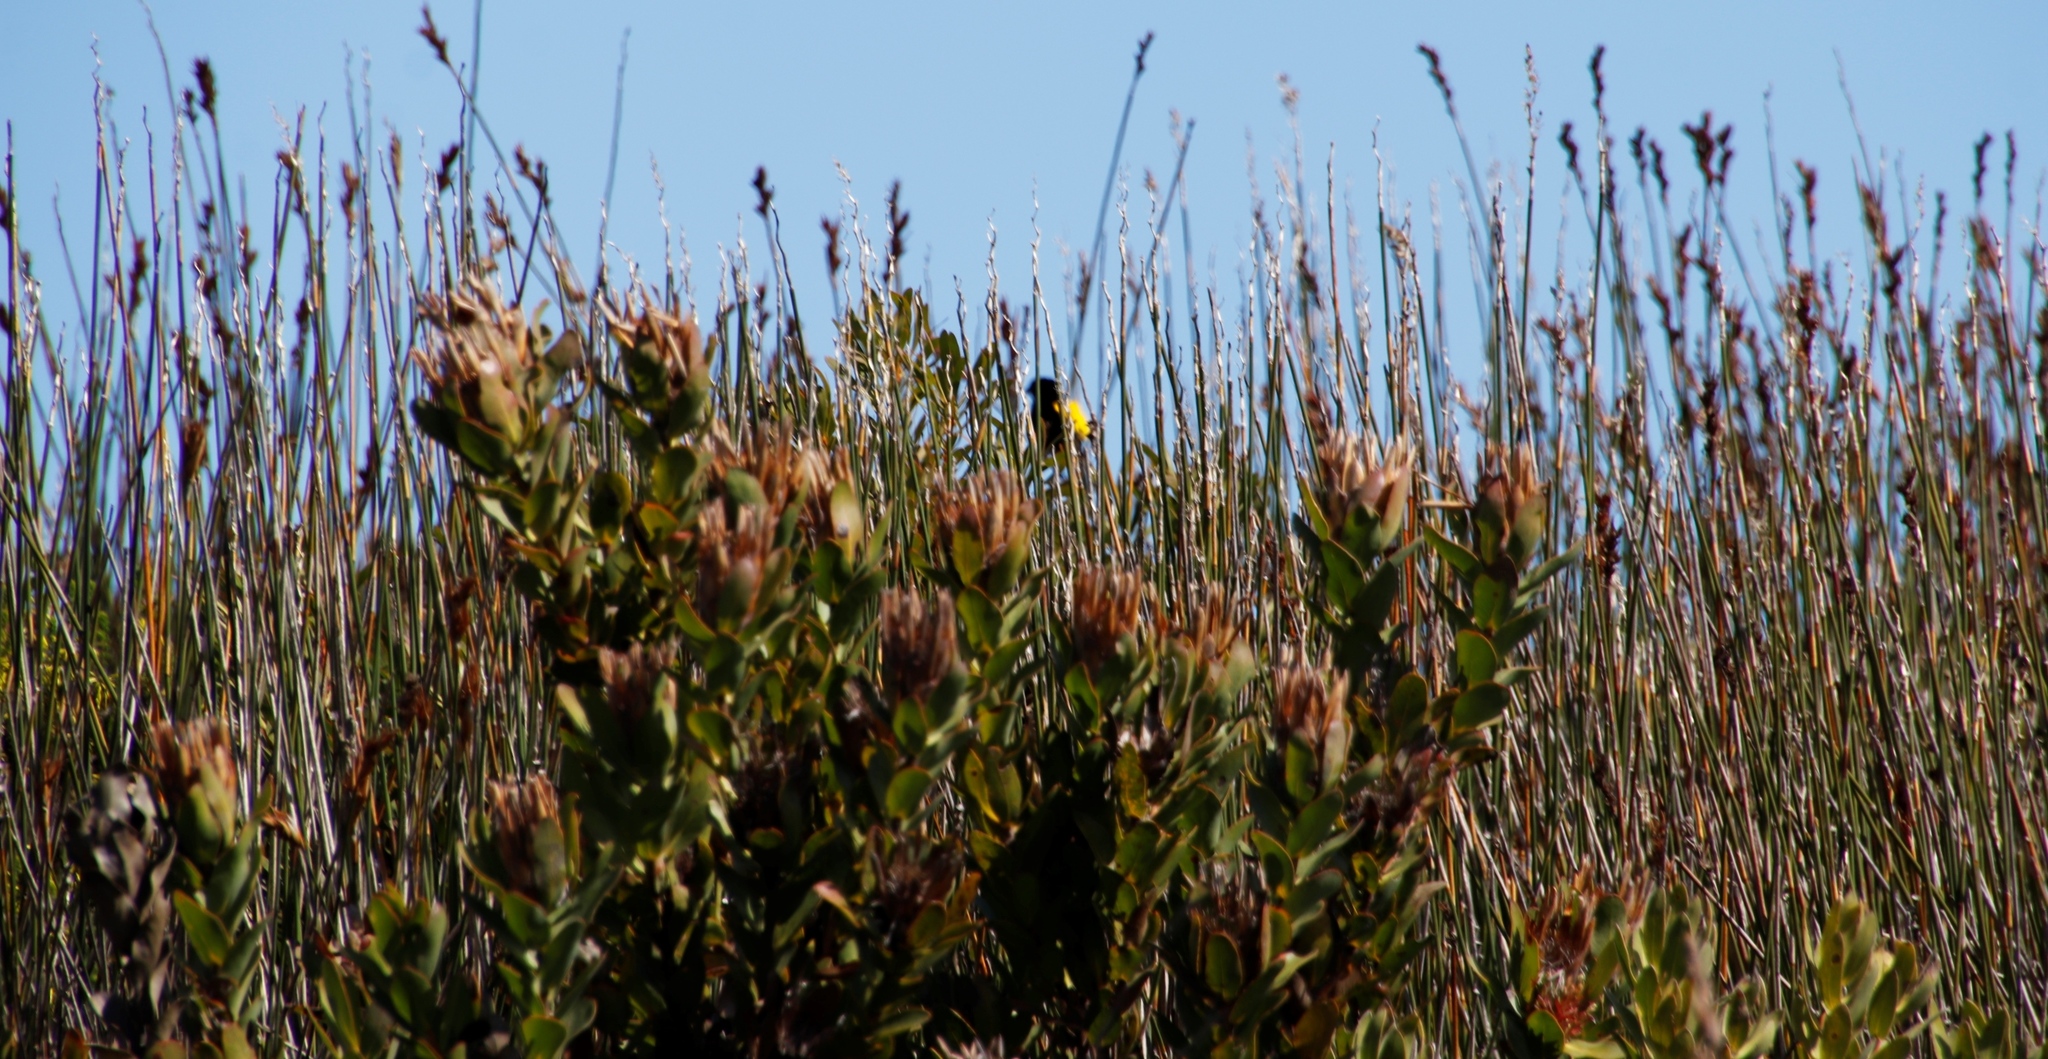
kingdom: Animalia
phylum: Chordata
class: Aves
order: Passeriformes
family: Ploceidae
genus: Euplectes
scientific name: Euplectes capensis
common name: Yellow bishop
